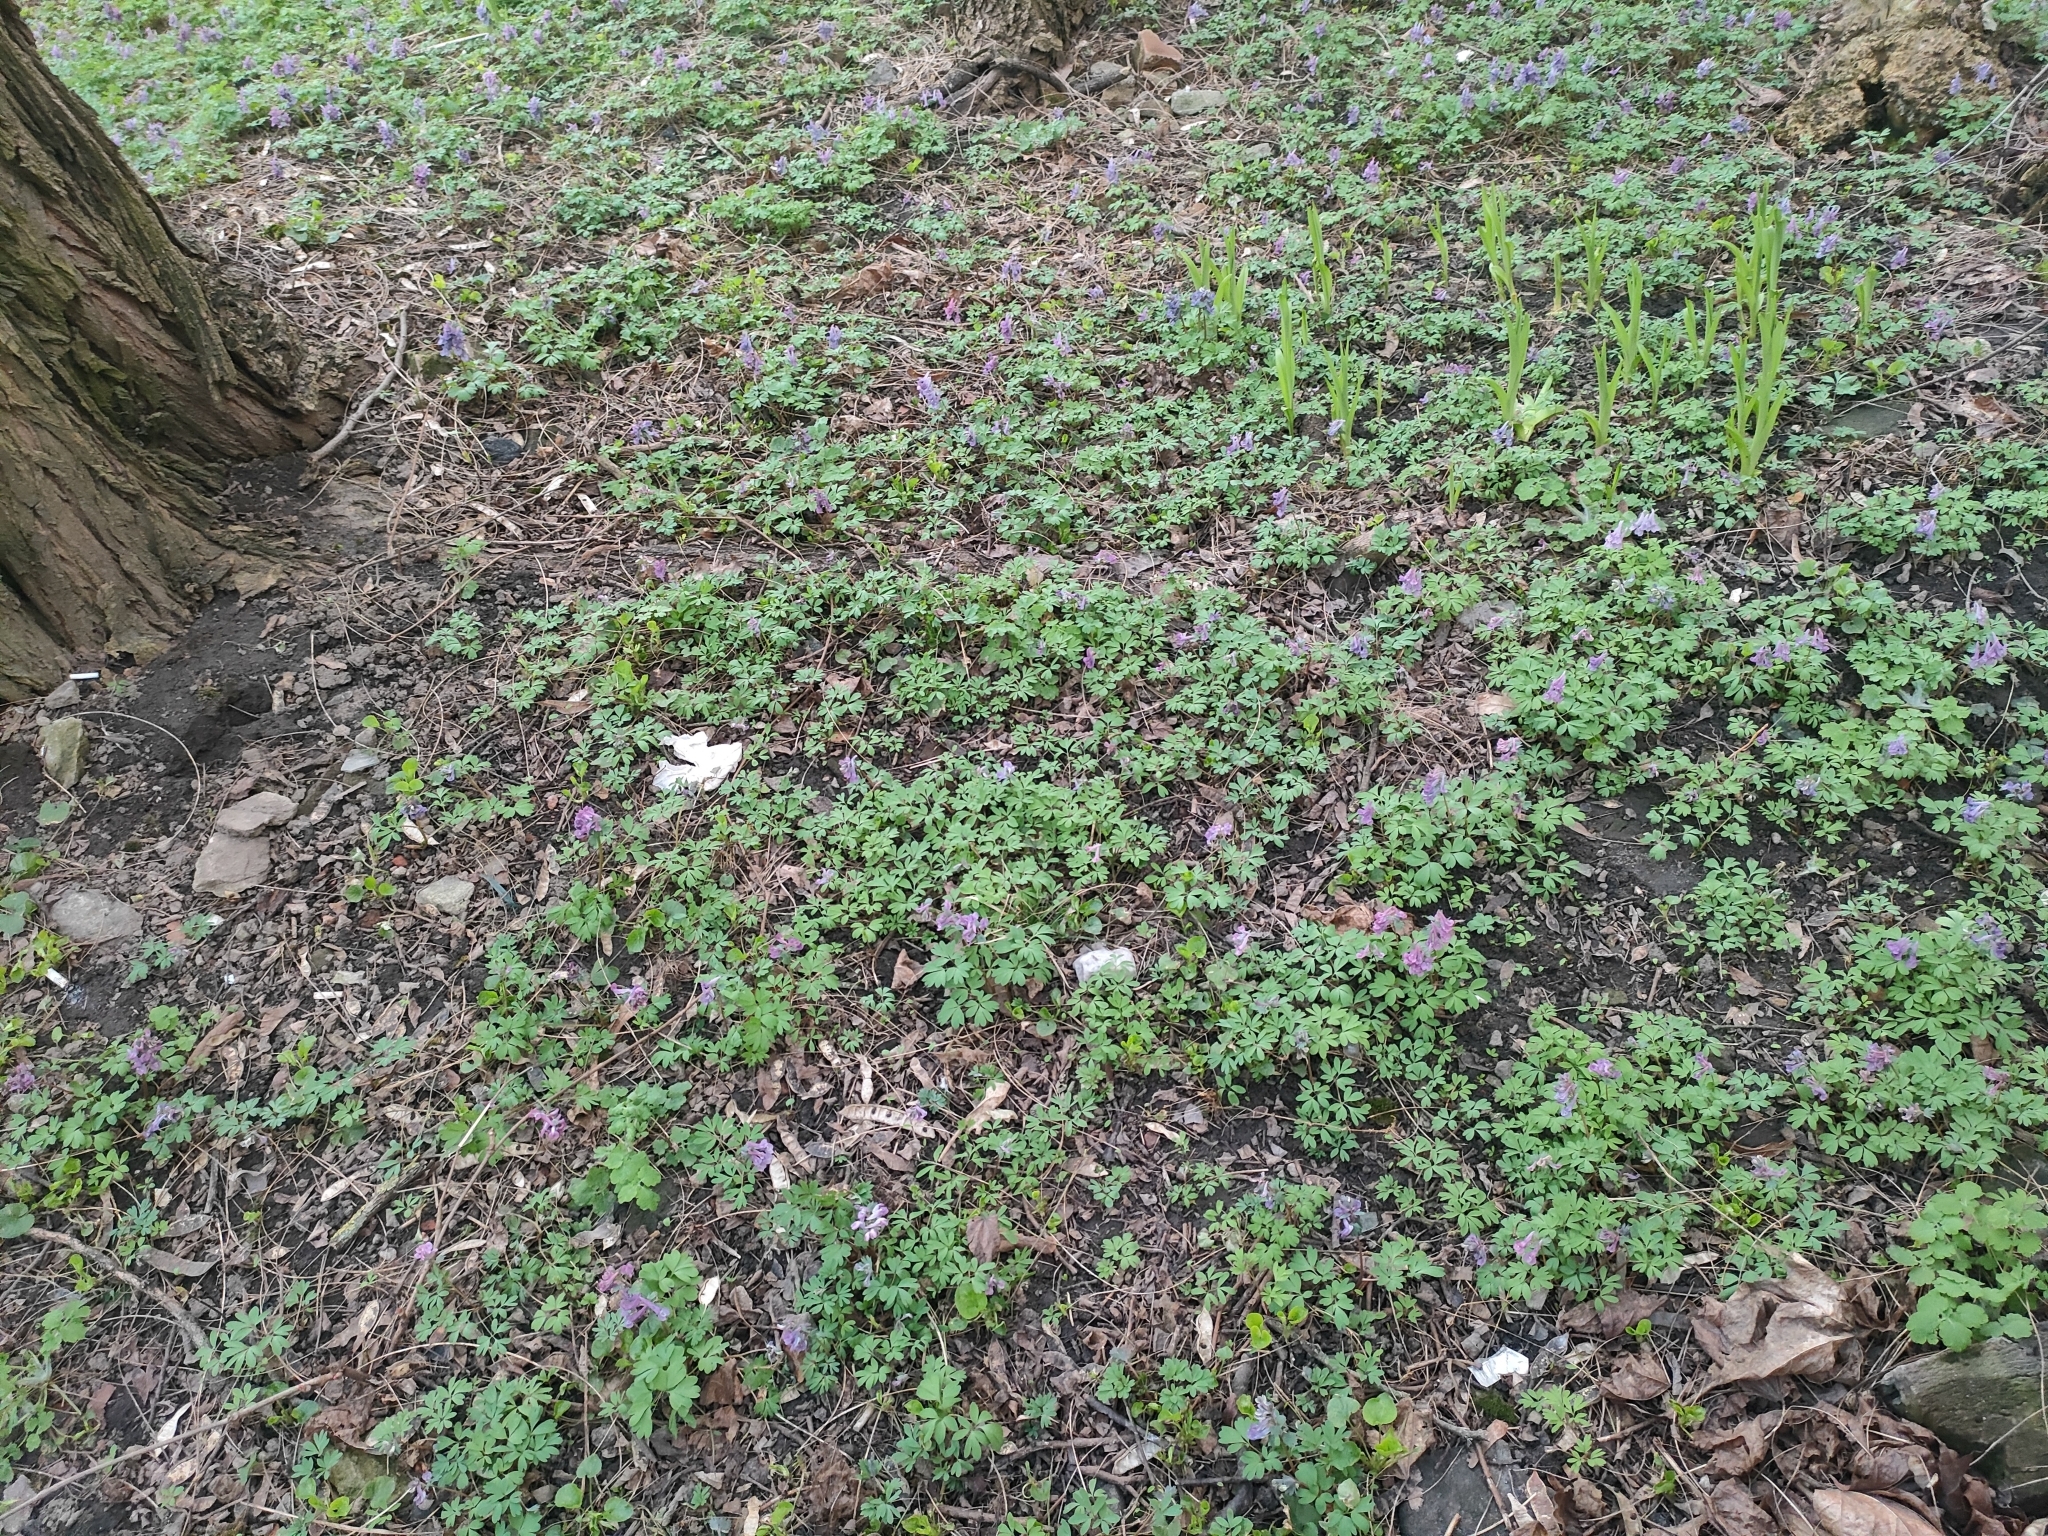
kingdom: Plantae
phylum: Tracheophyta
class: Magnoliopsida
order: Ranunculales
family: Papaveraceae
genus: Corydalis
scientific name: Corydalis solida
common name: Bird-in-a-bush
